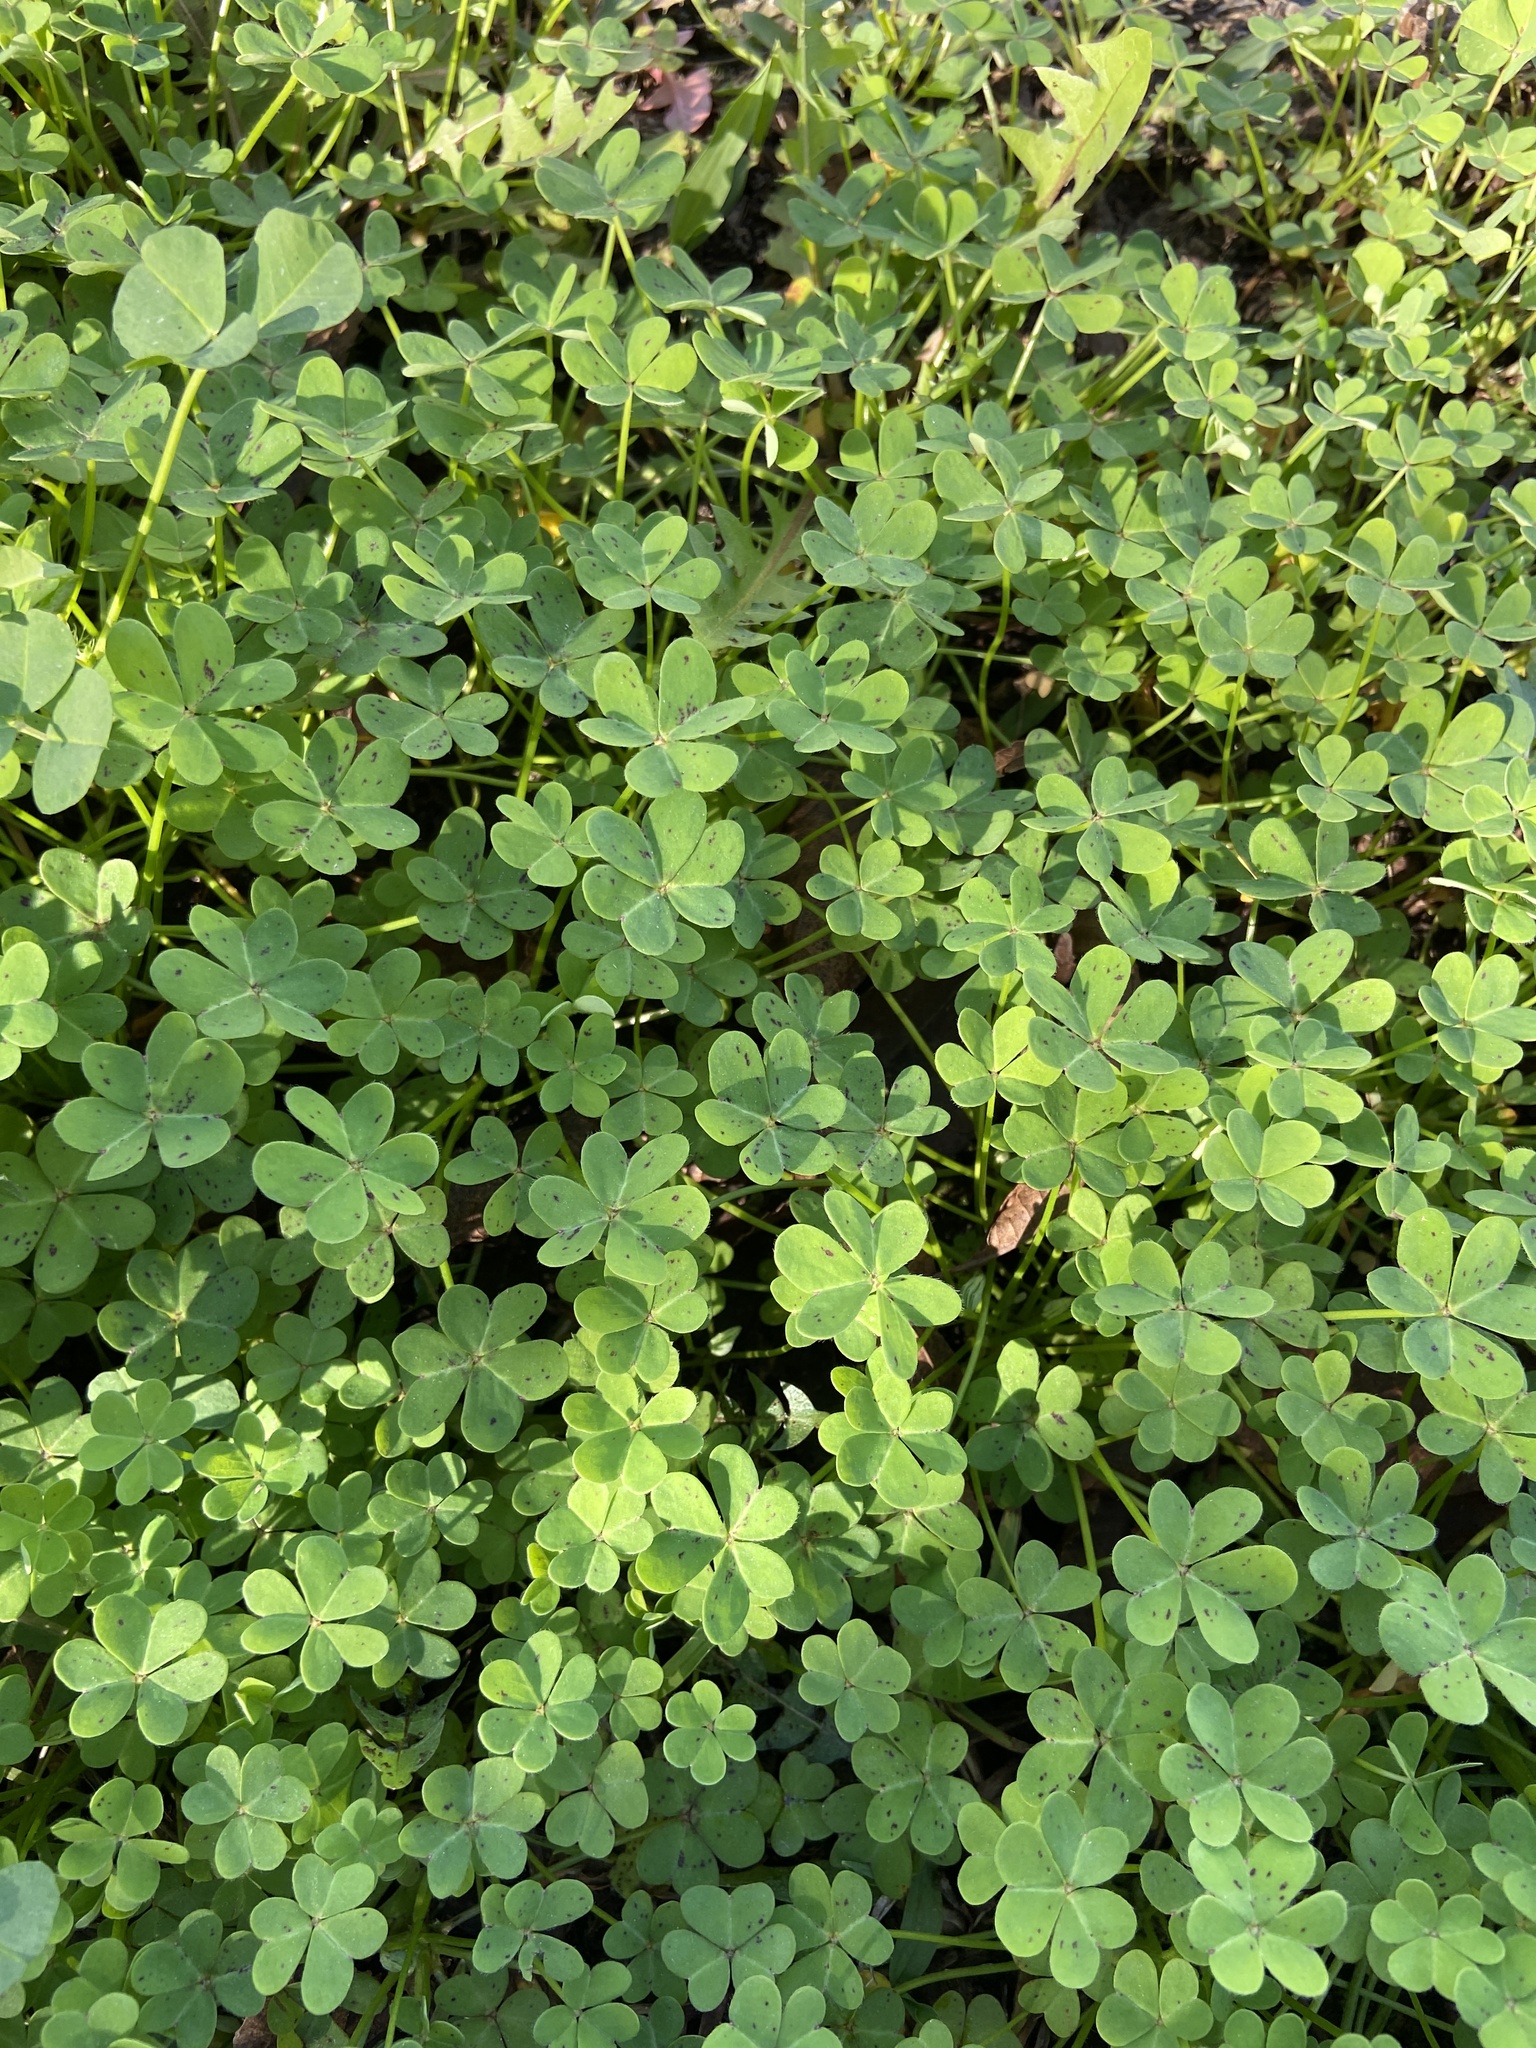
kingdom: Plantae
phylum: Tracheophyta
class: Magnoliopsida
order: Oxalidales
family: Oxalidaceae
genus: Oxalis
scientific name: Oxalis pes-caprae
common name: Bermuda-buttercup
